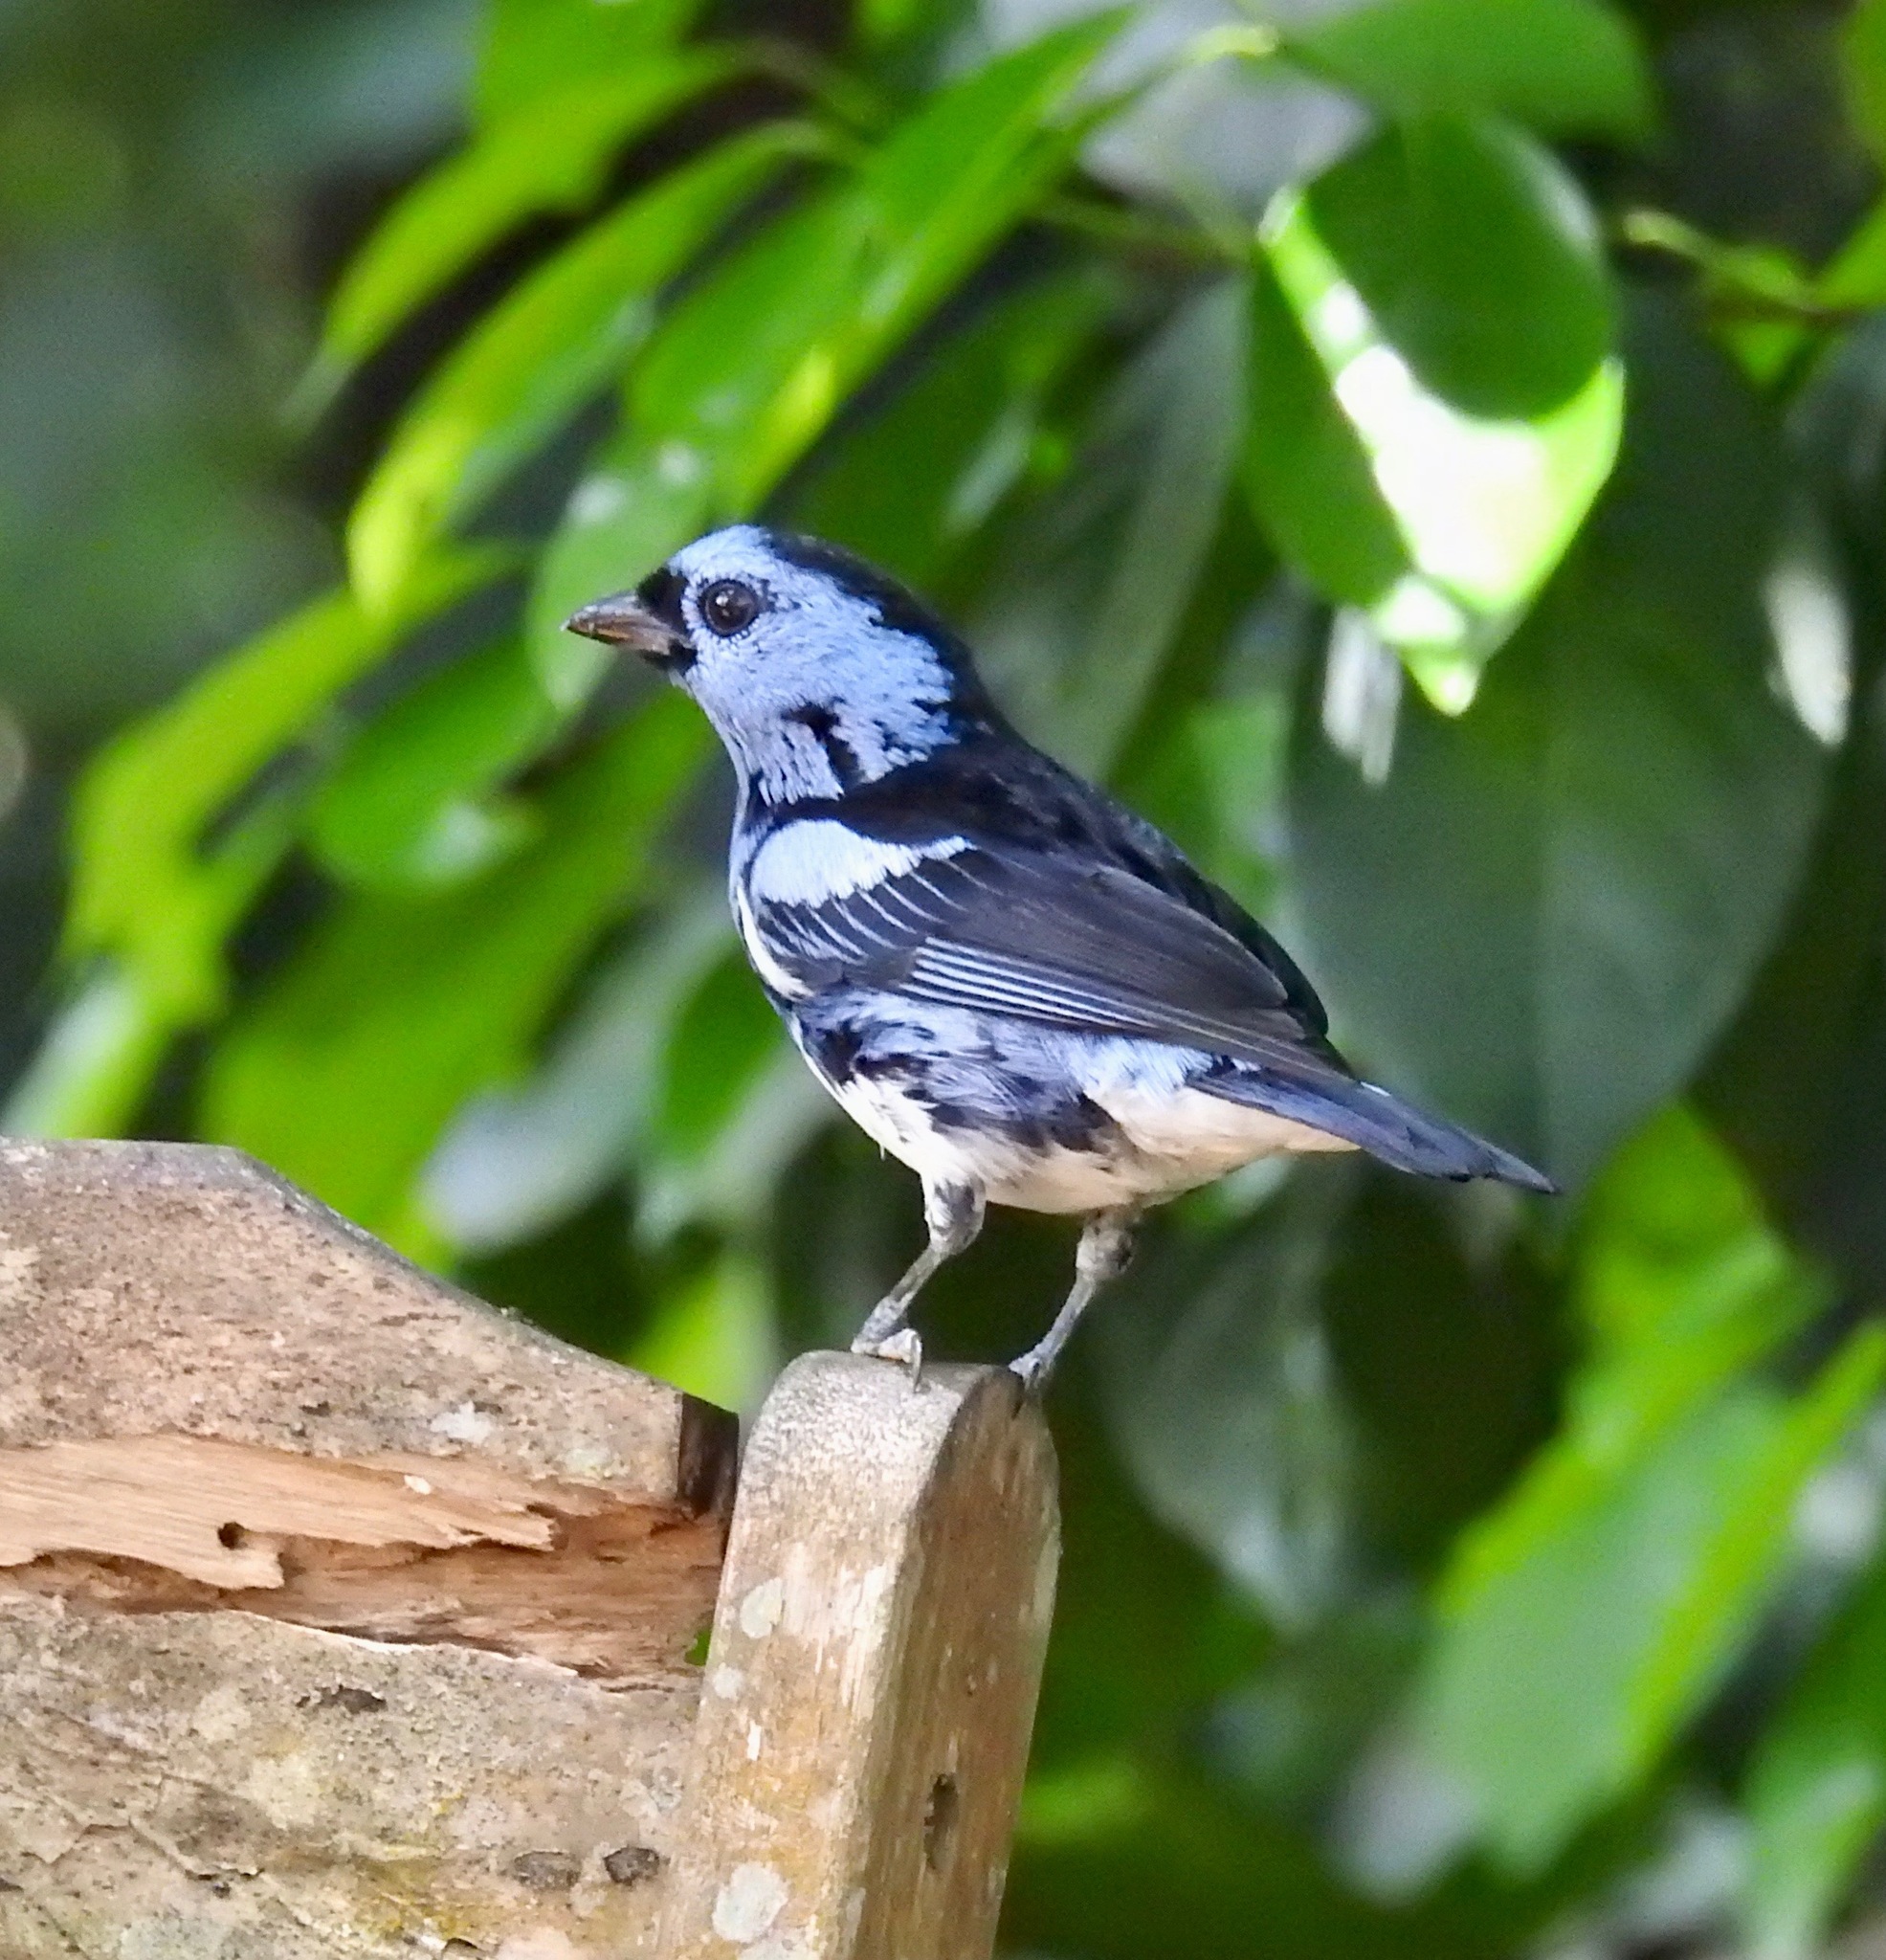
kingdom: Animalia
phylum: Chordata
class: Aves
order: Passeriformes
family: Thraupidae
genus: Tangara
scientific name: Tangara mexicana
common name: Turquoise tanager
